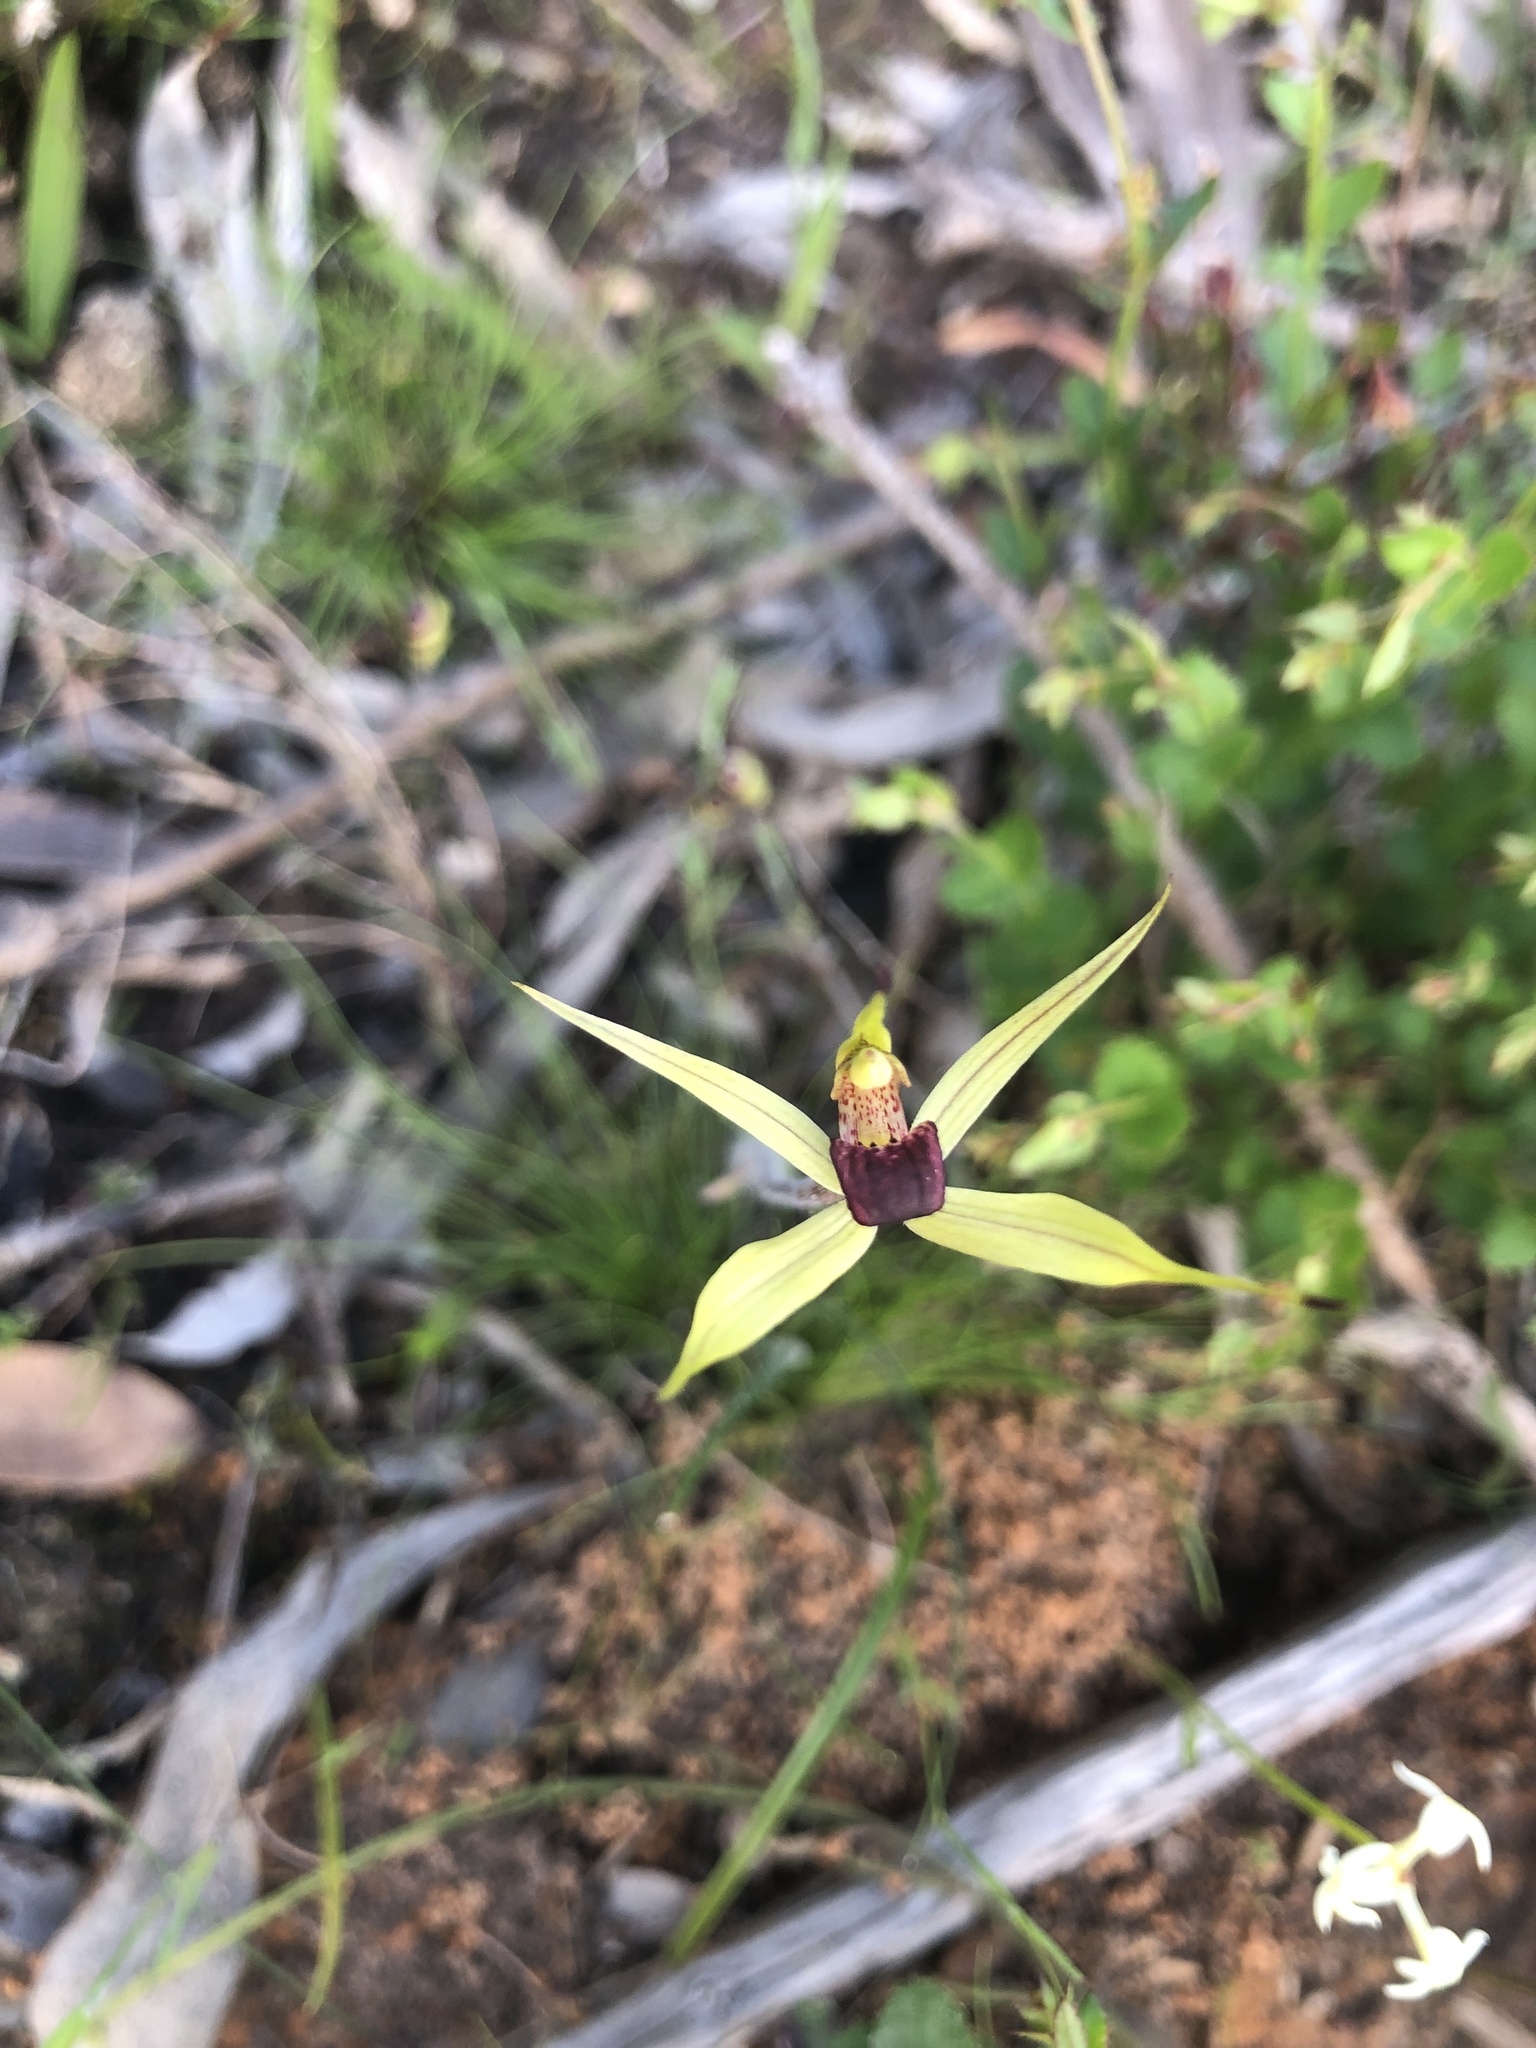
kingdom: Plantae
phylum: Tracheophyta
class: Liliopsida
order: Asparagales
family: Orchidaceae
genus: Caladenia
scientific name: Caladenia leptochila
